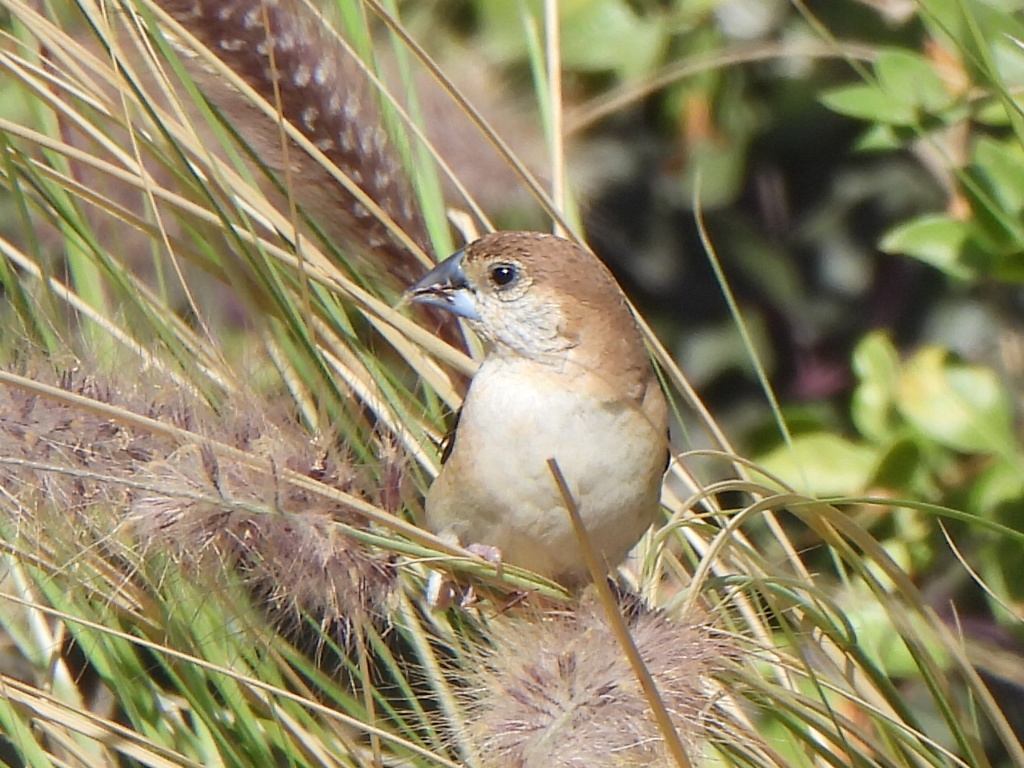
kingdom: Animalia
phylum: Chordata
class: Aves
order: Passeriformes
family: Estrildidae
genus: Euodice
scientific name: Euodice malabarica
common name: Indian silverbill
